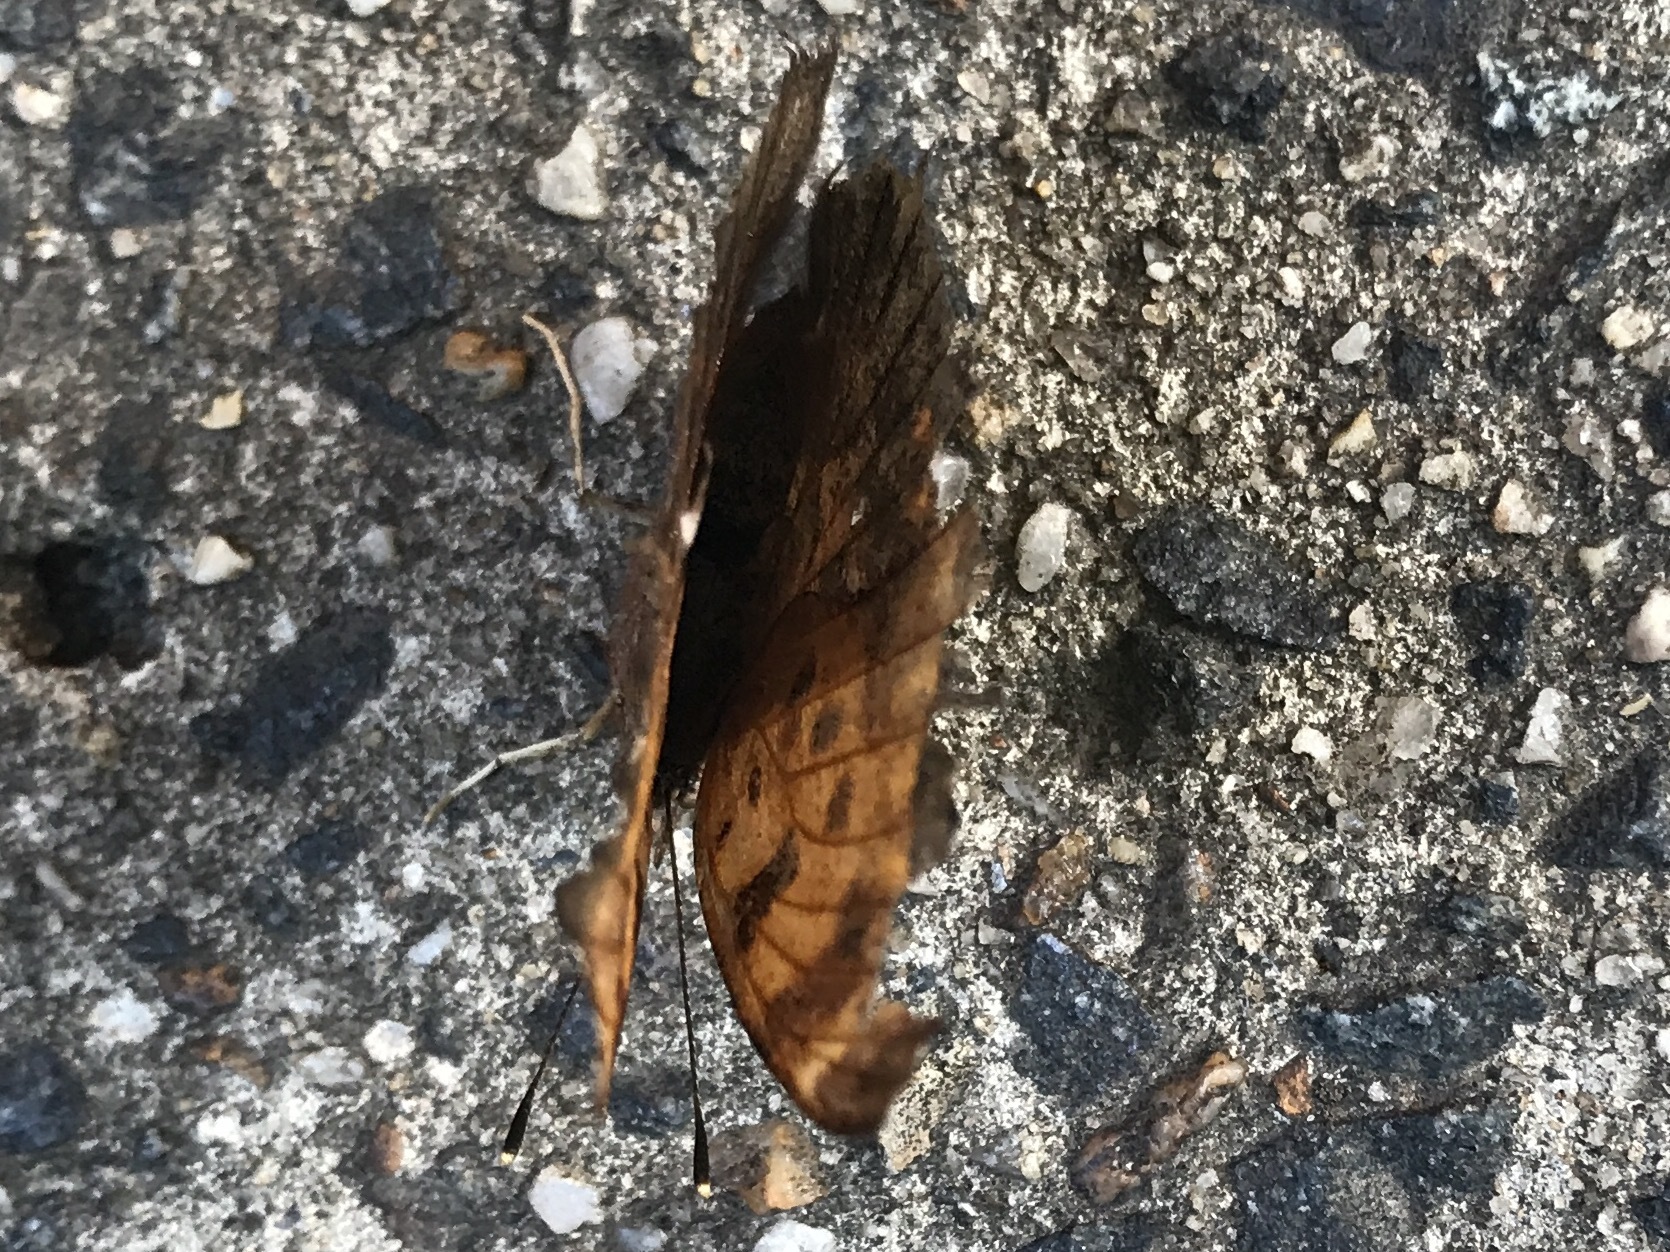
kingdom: Animalia
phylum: Arthropoda
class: Insecta
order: Lepidoptera
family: Nymphalidae
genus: Polygonia
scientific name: Polygonia comma
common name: Eastern comma
